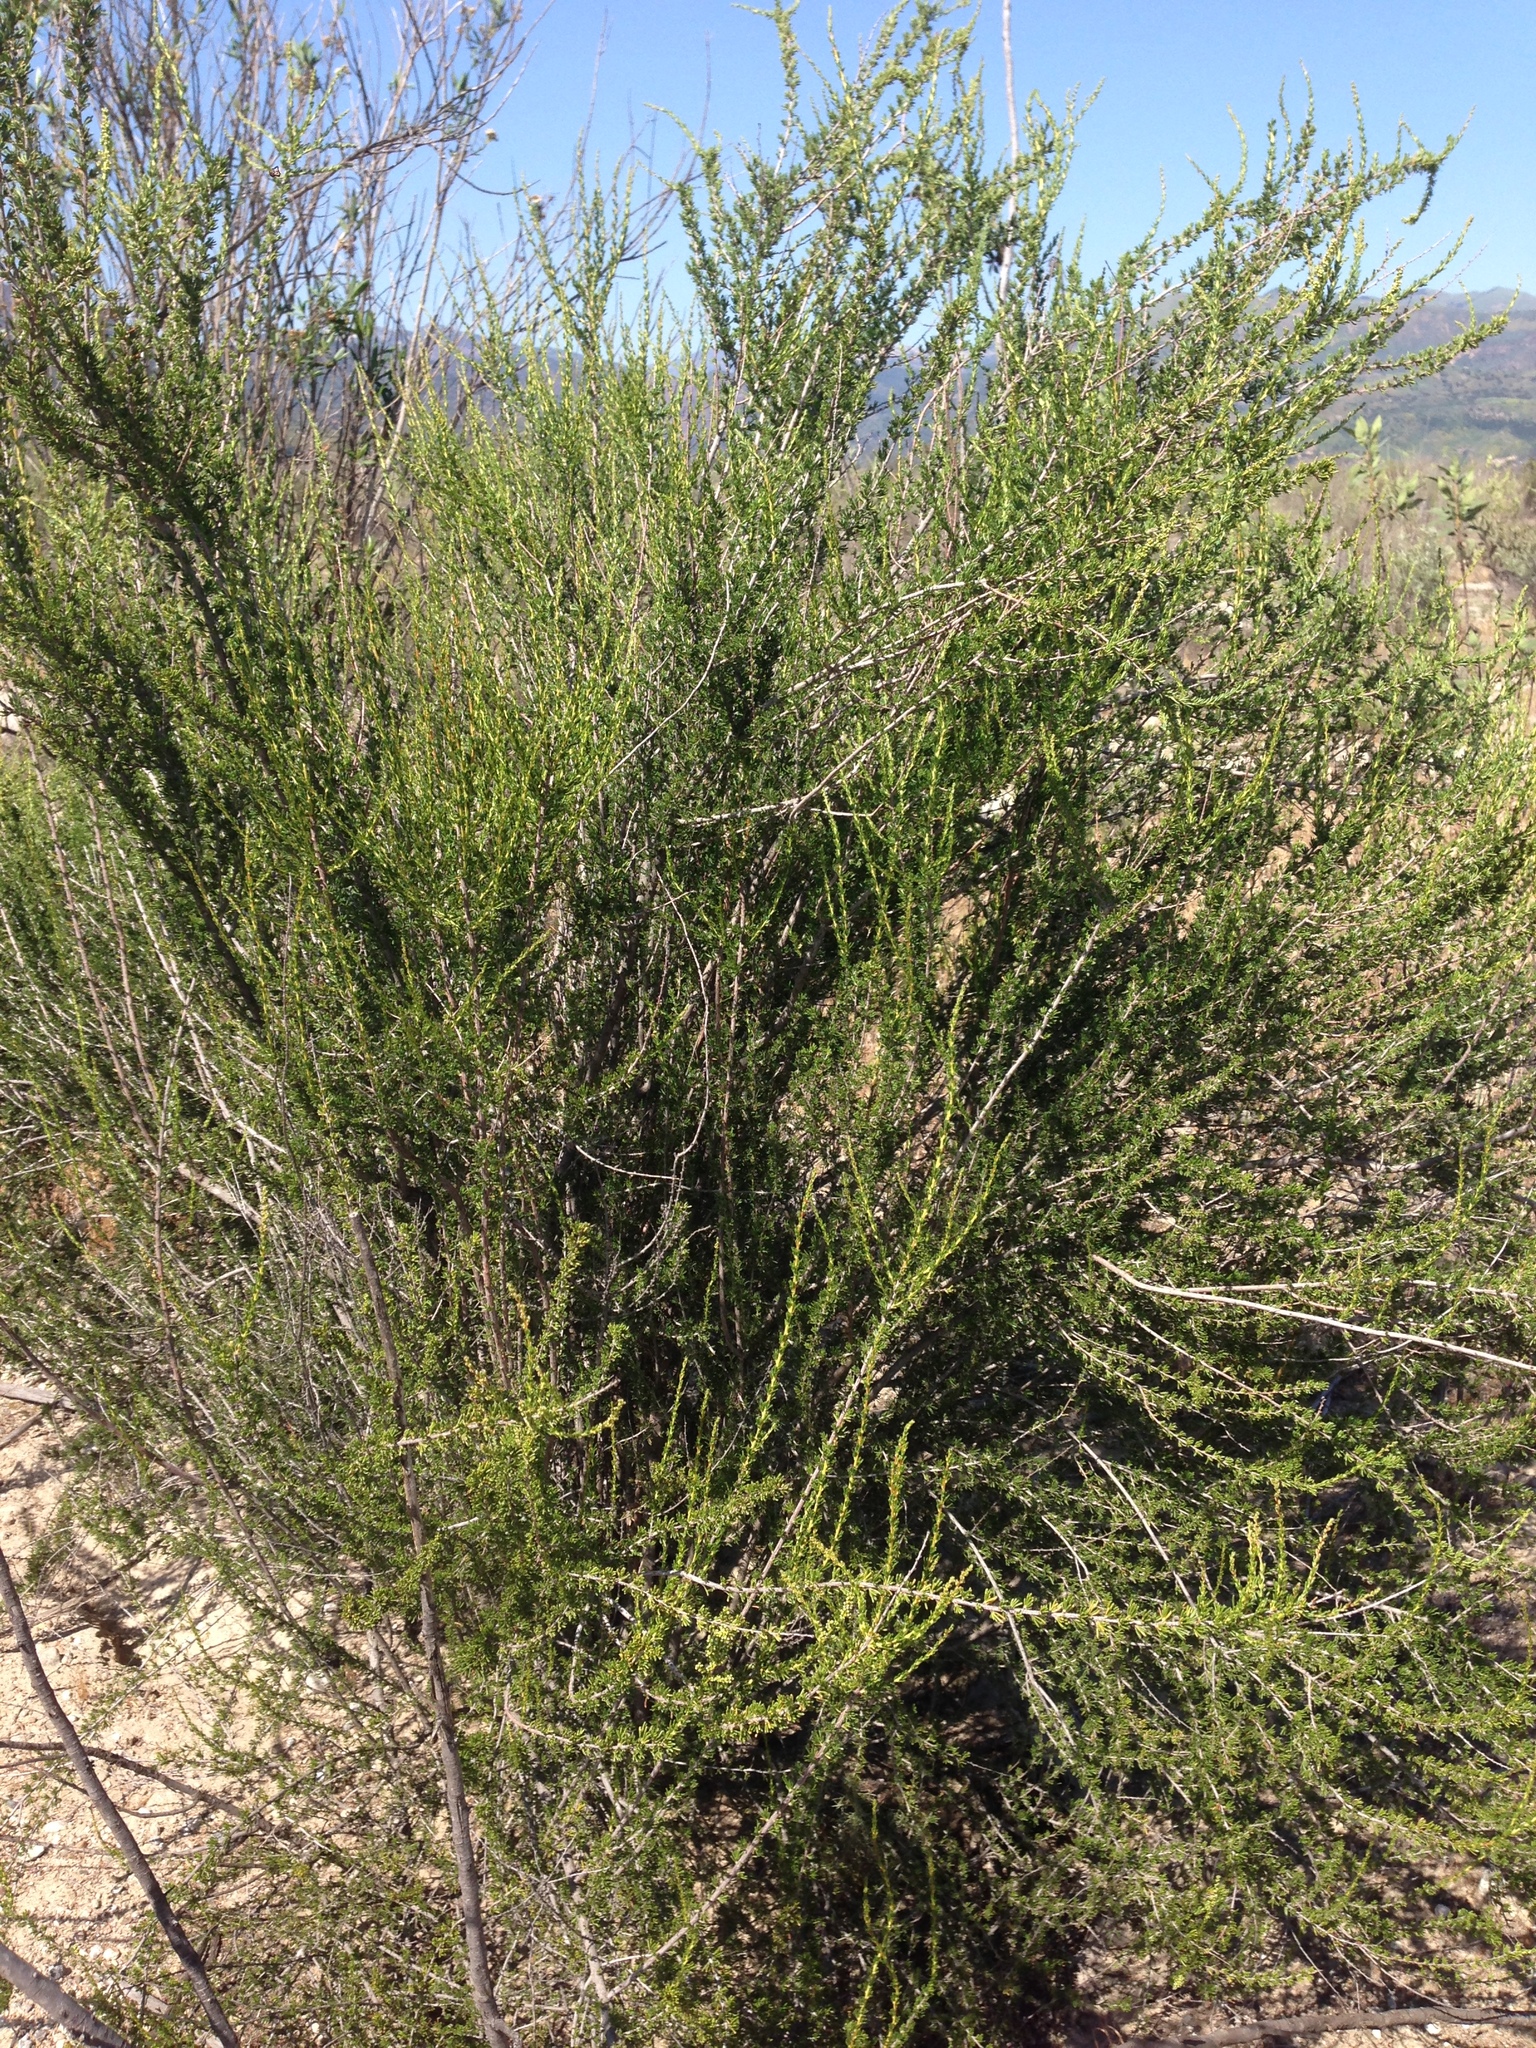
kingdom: Plantae
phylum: Tracheophyta
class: Magnoliopsida
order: Rosales
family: Rosaceae
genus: Adenostoma
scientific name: Adenostoma fasciculatum
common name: Chamise
